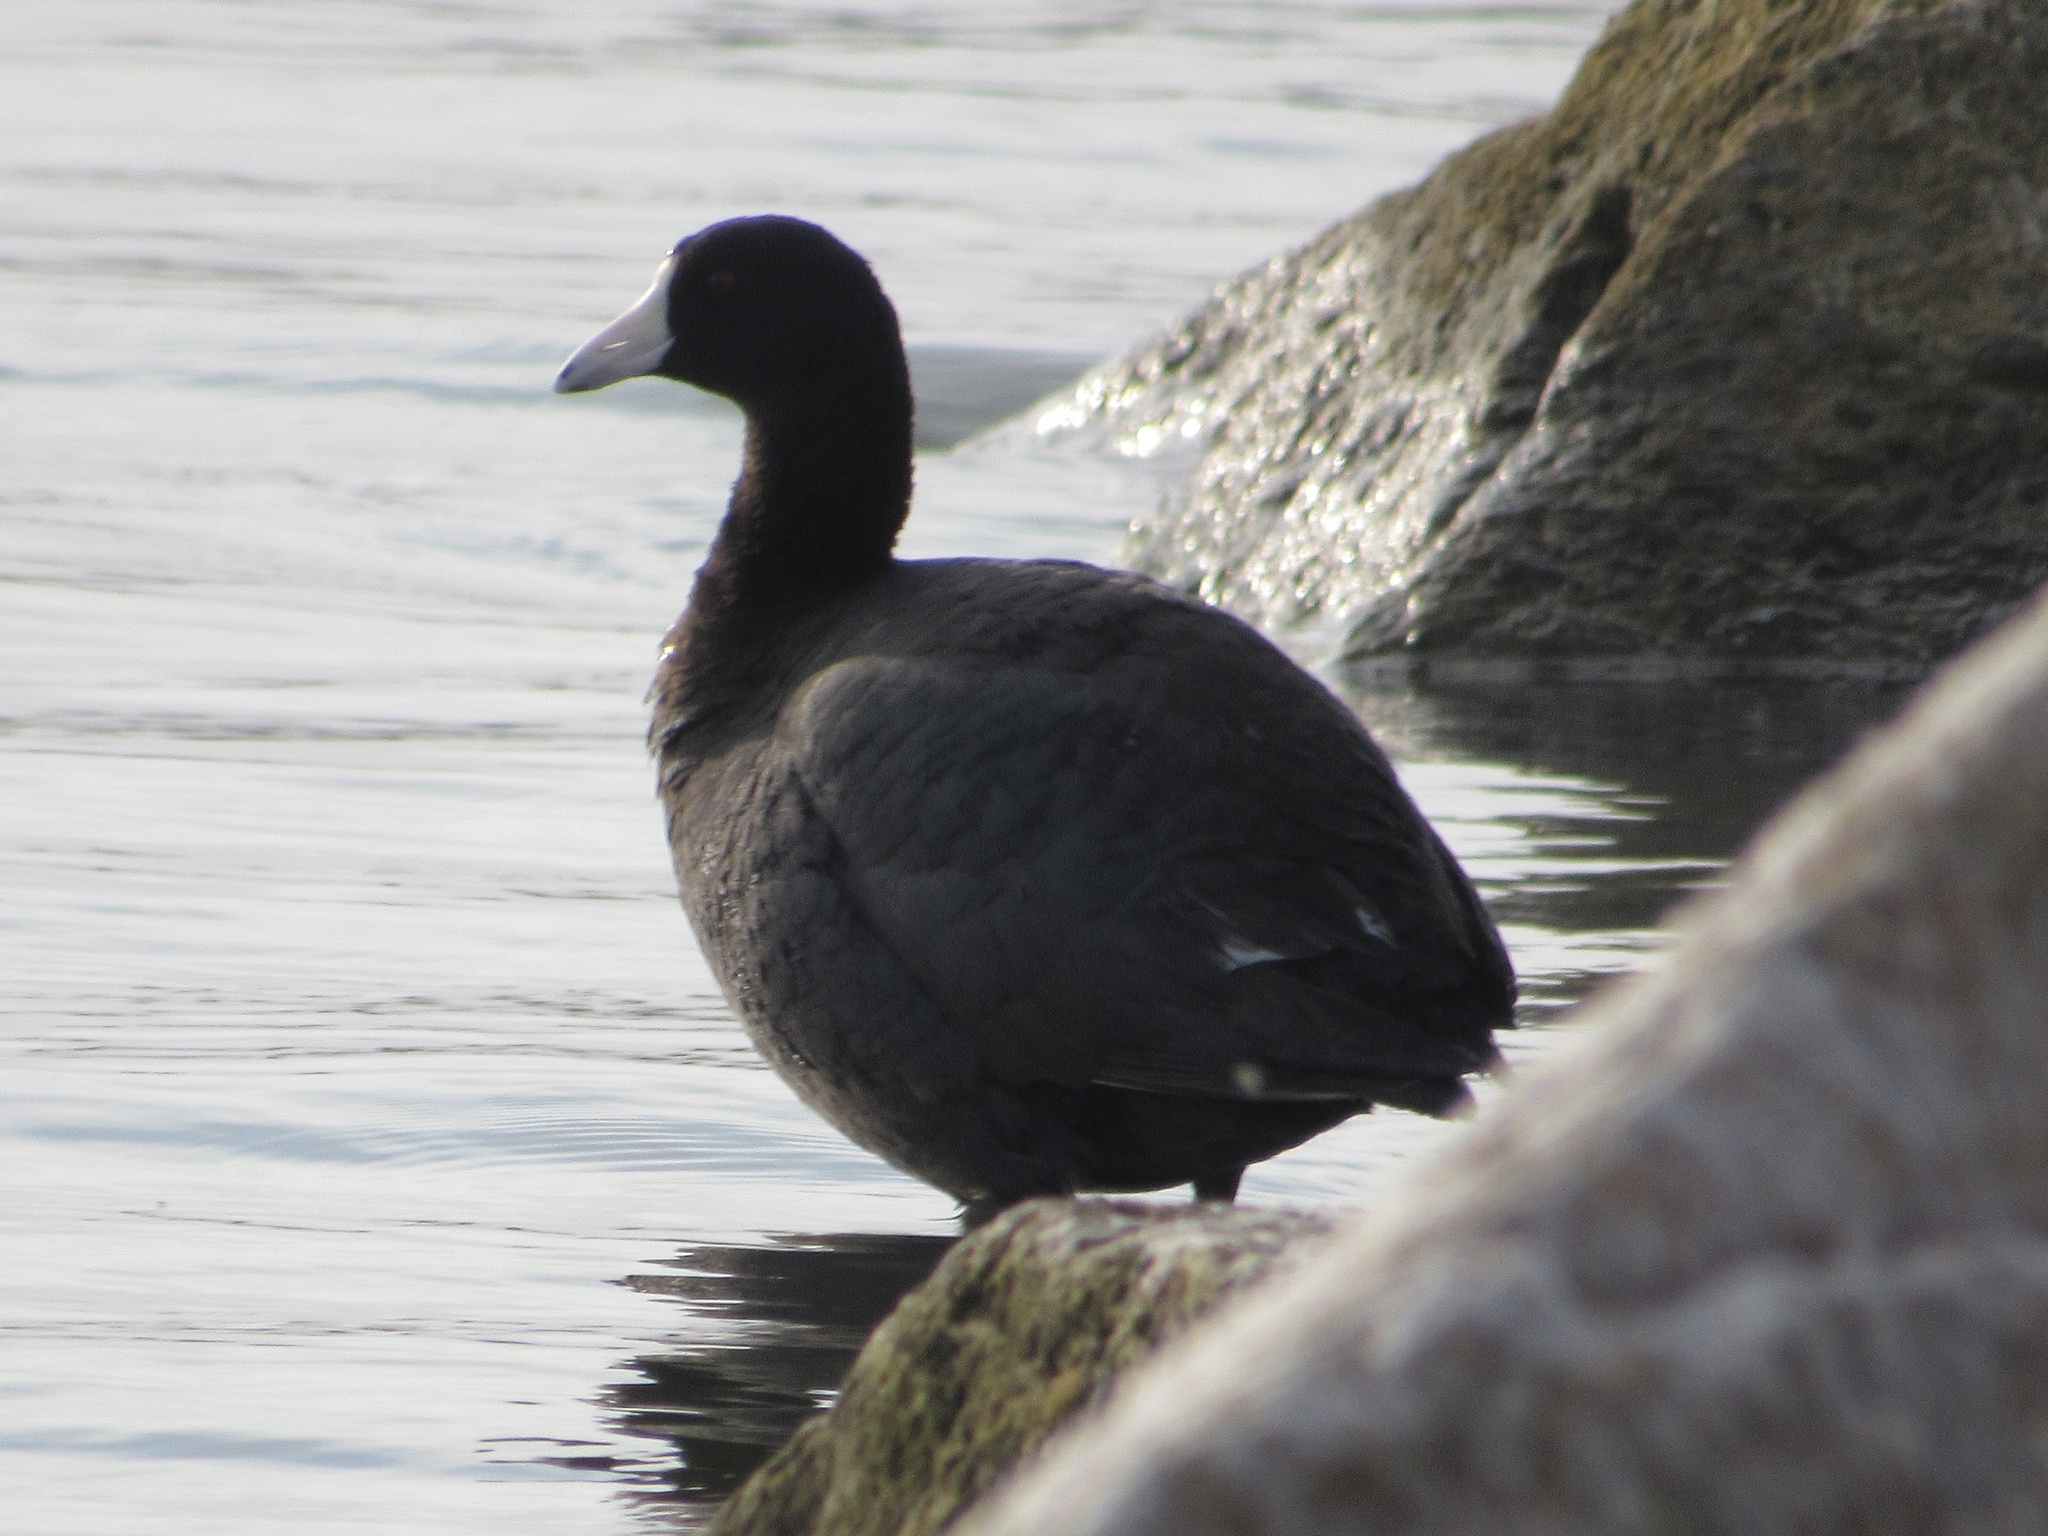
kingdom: Animalia
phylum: Chordata
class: Aves
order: Gruiformes
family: Rallidae
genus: Fulica
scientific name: Fulica americana
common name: American coot
